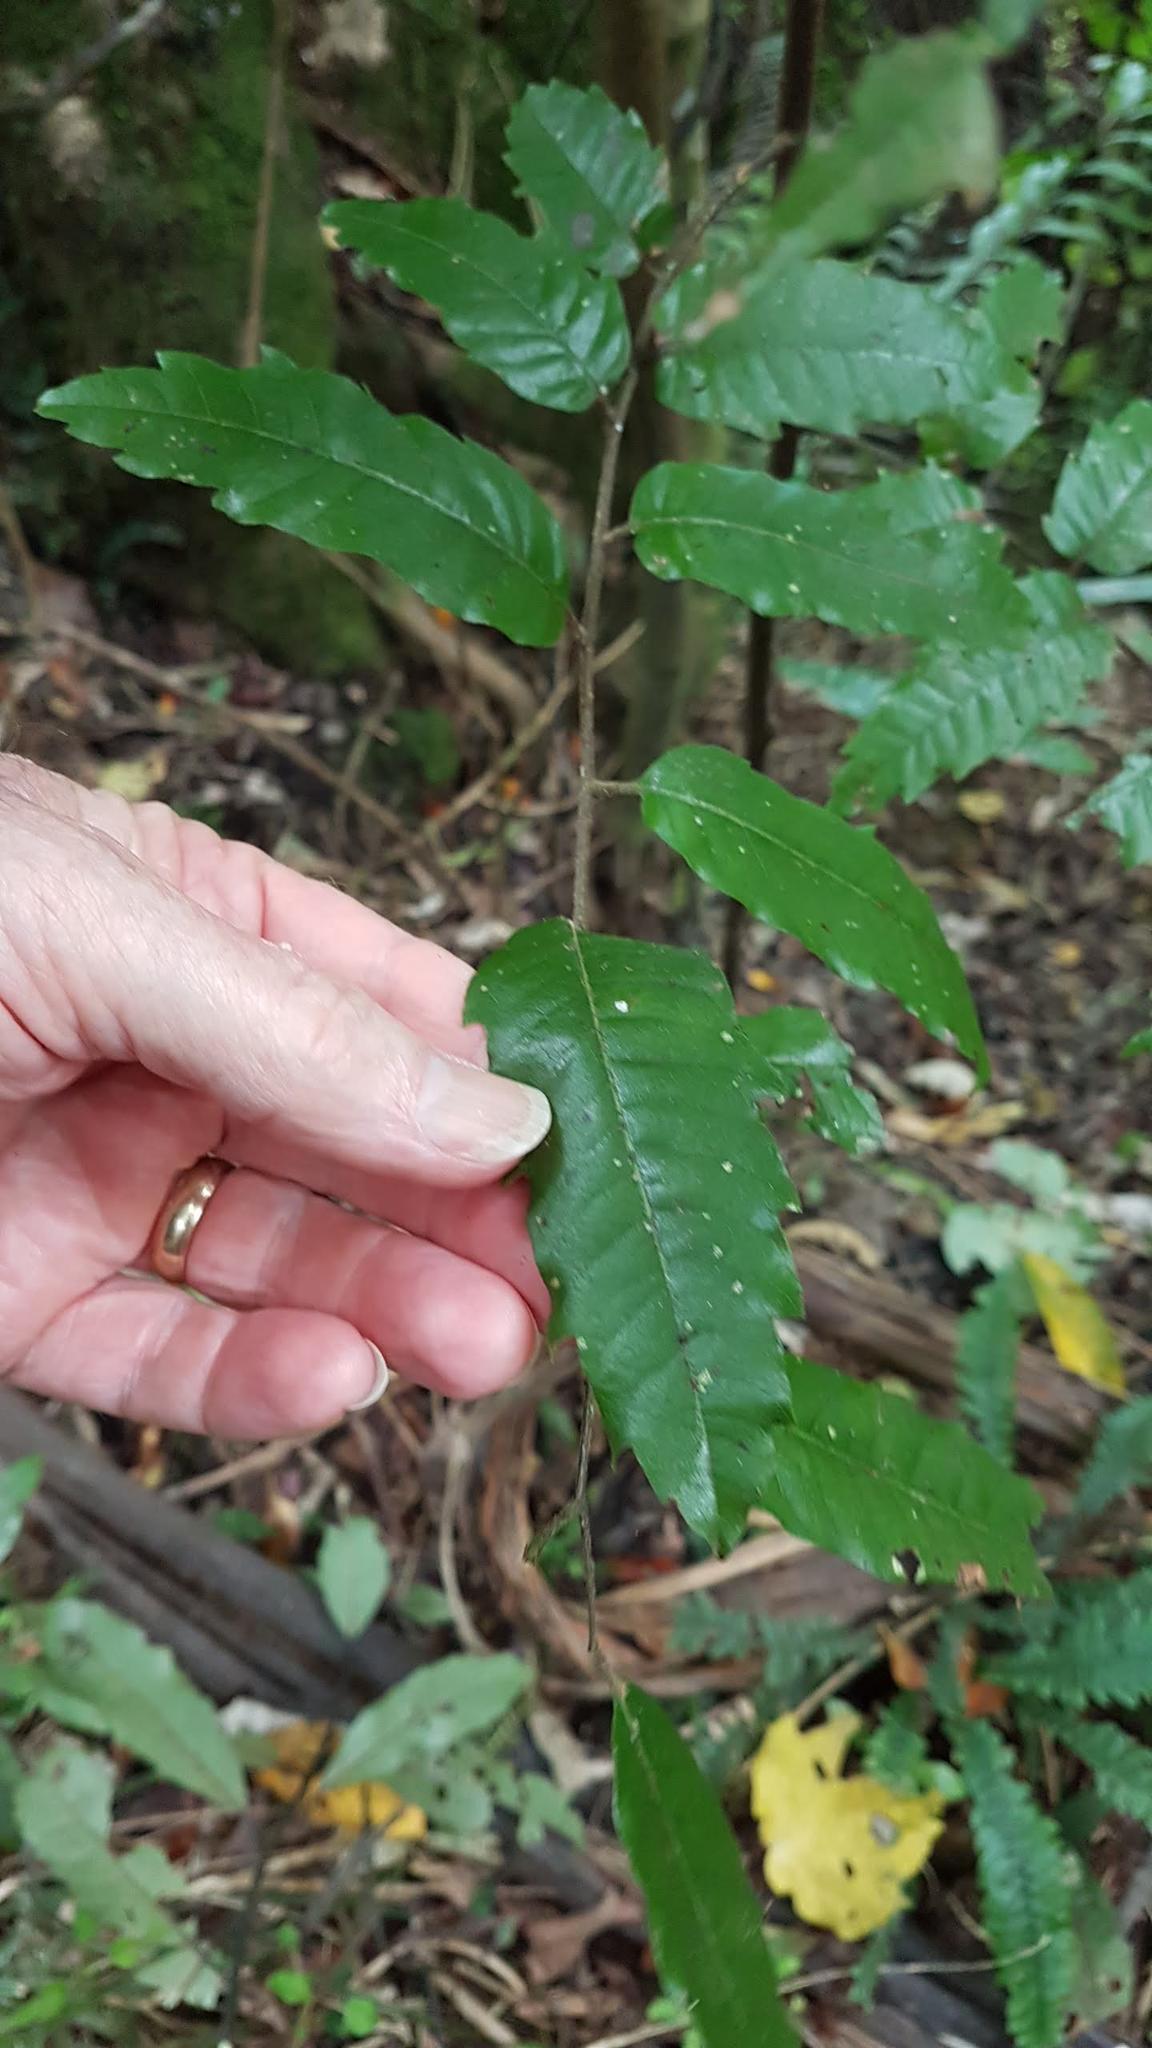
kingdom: Plantae
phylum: Tracheophyta
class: Magnoliopsida
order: Sapindales
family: Sapindaceae
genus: Alectryon
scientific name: Alectryon excelsus
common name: Three kings titoki
